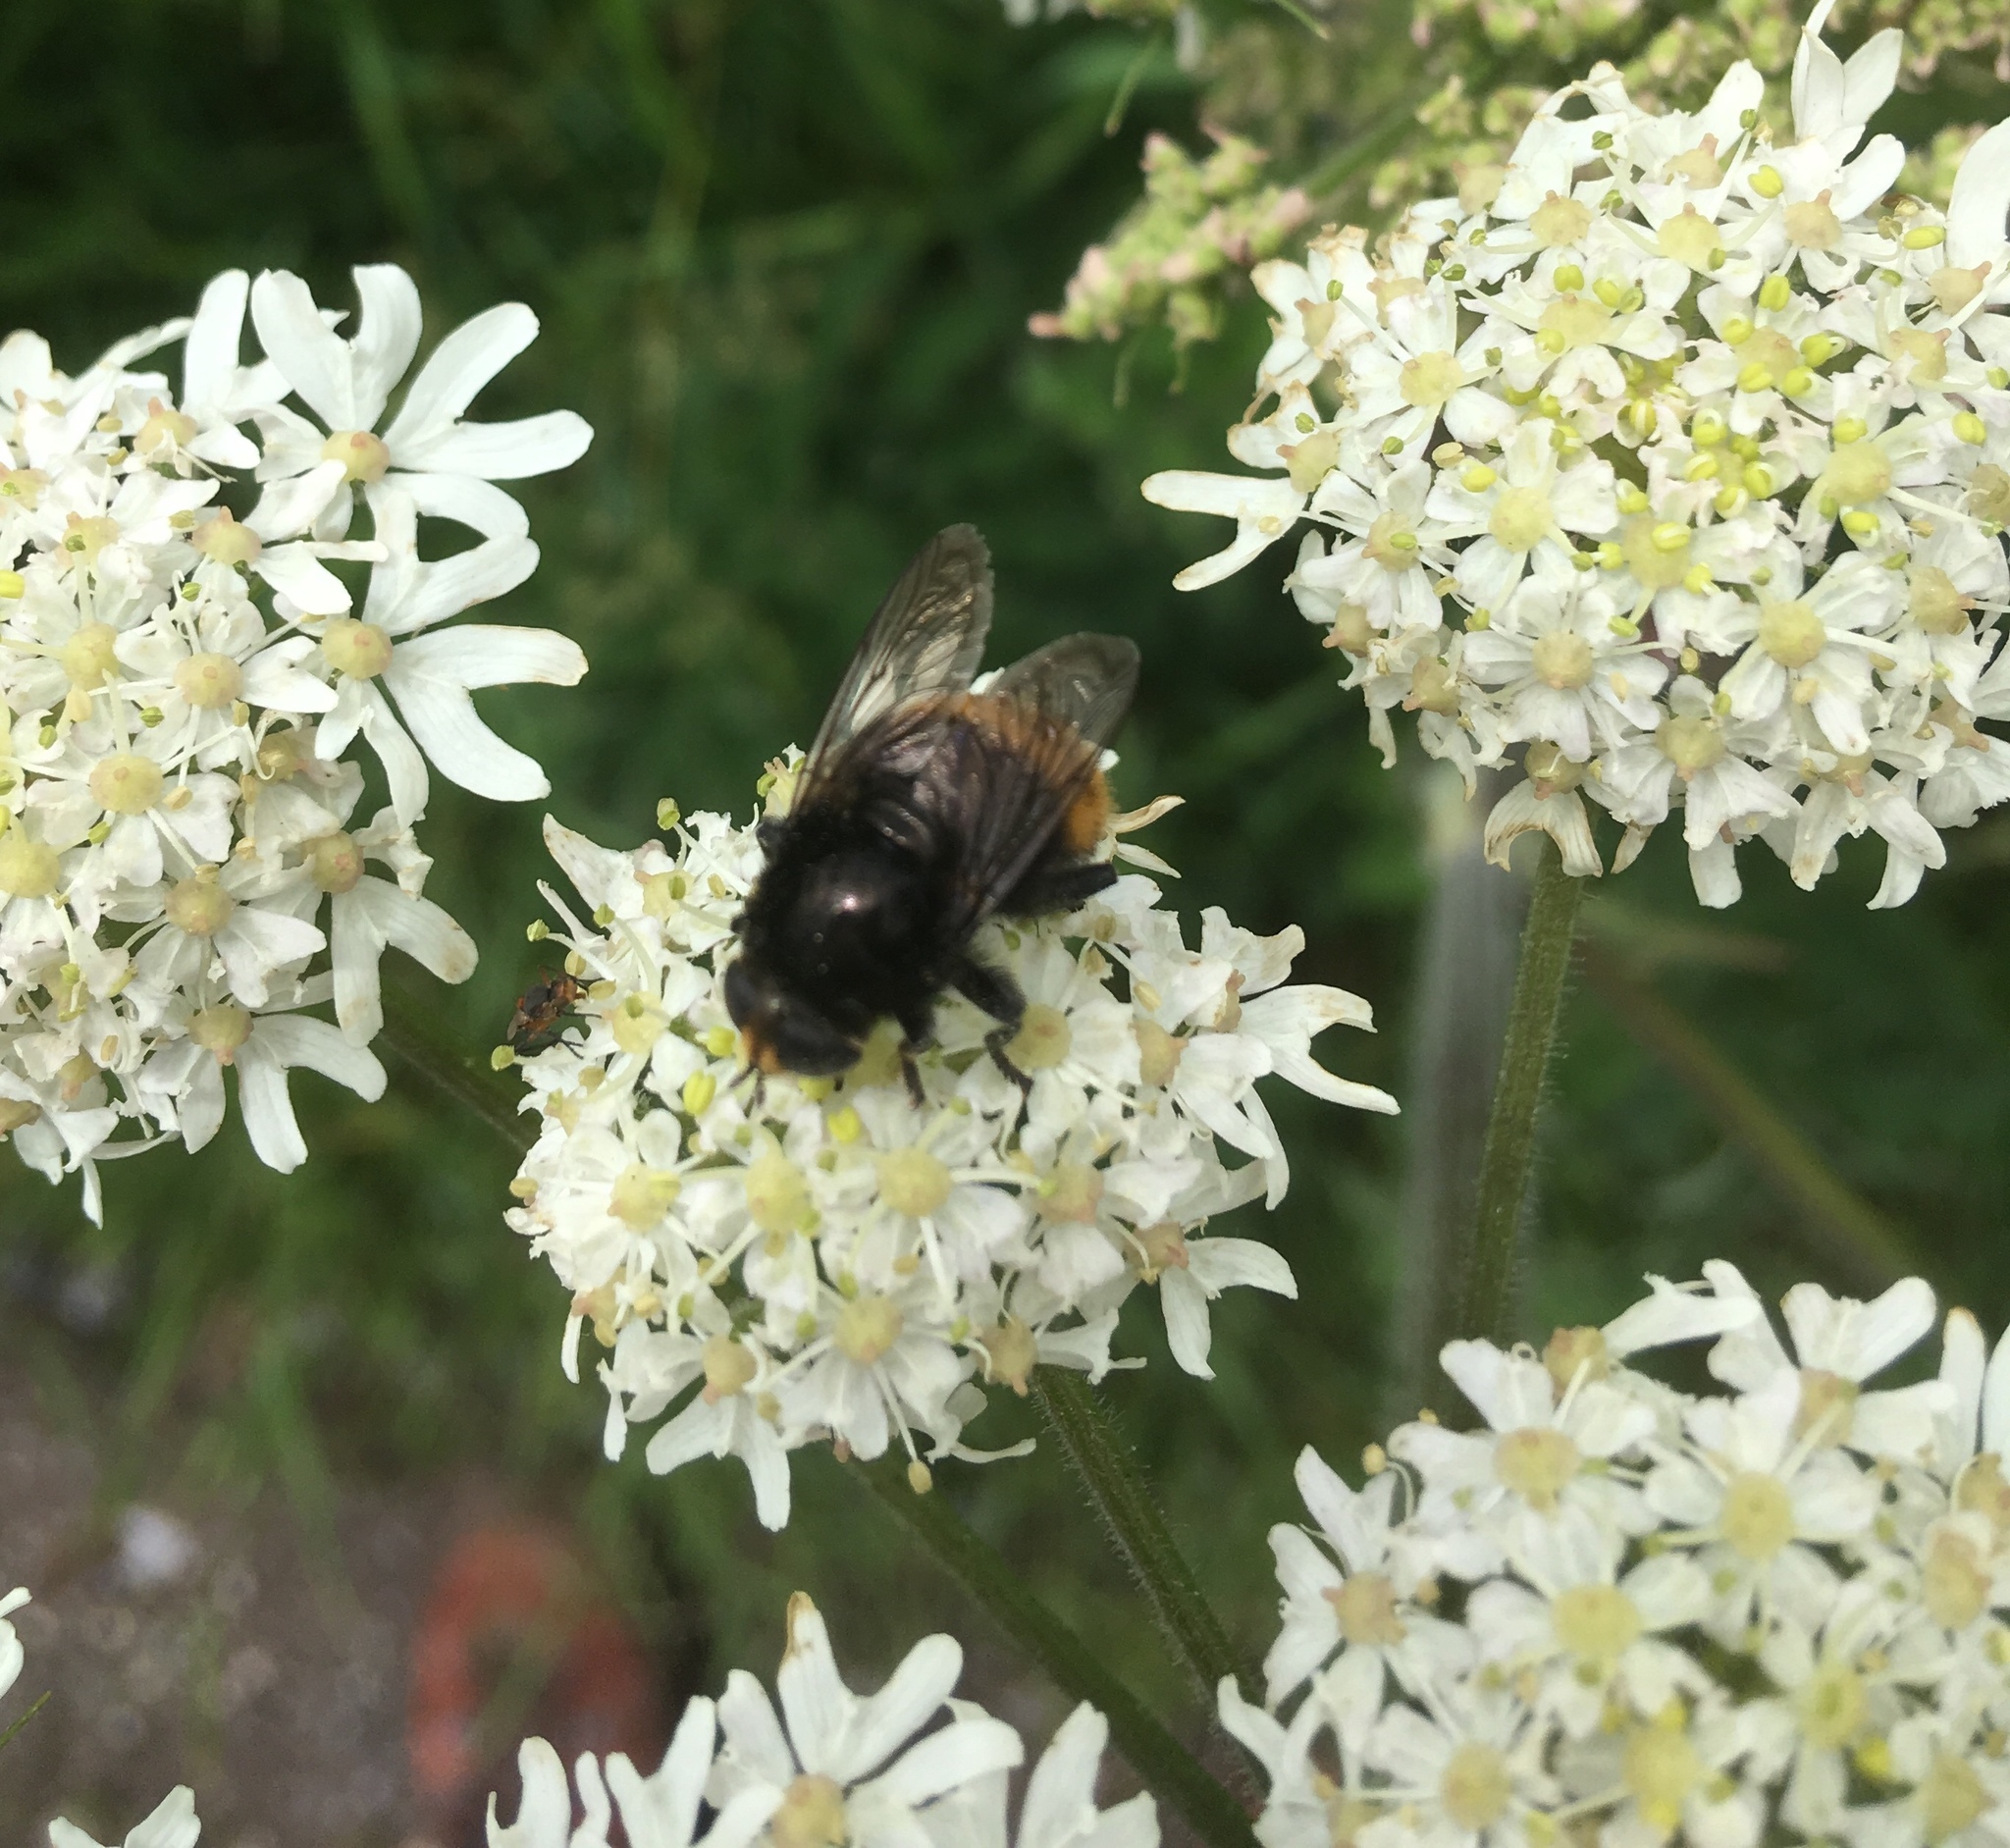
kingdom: Animalia
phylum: Arthropoda
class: Insecta
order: Diptera
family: Syrphidae
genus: Merodon
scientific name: Merodon equestris
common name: Greater bulb-fly
